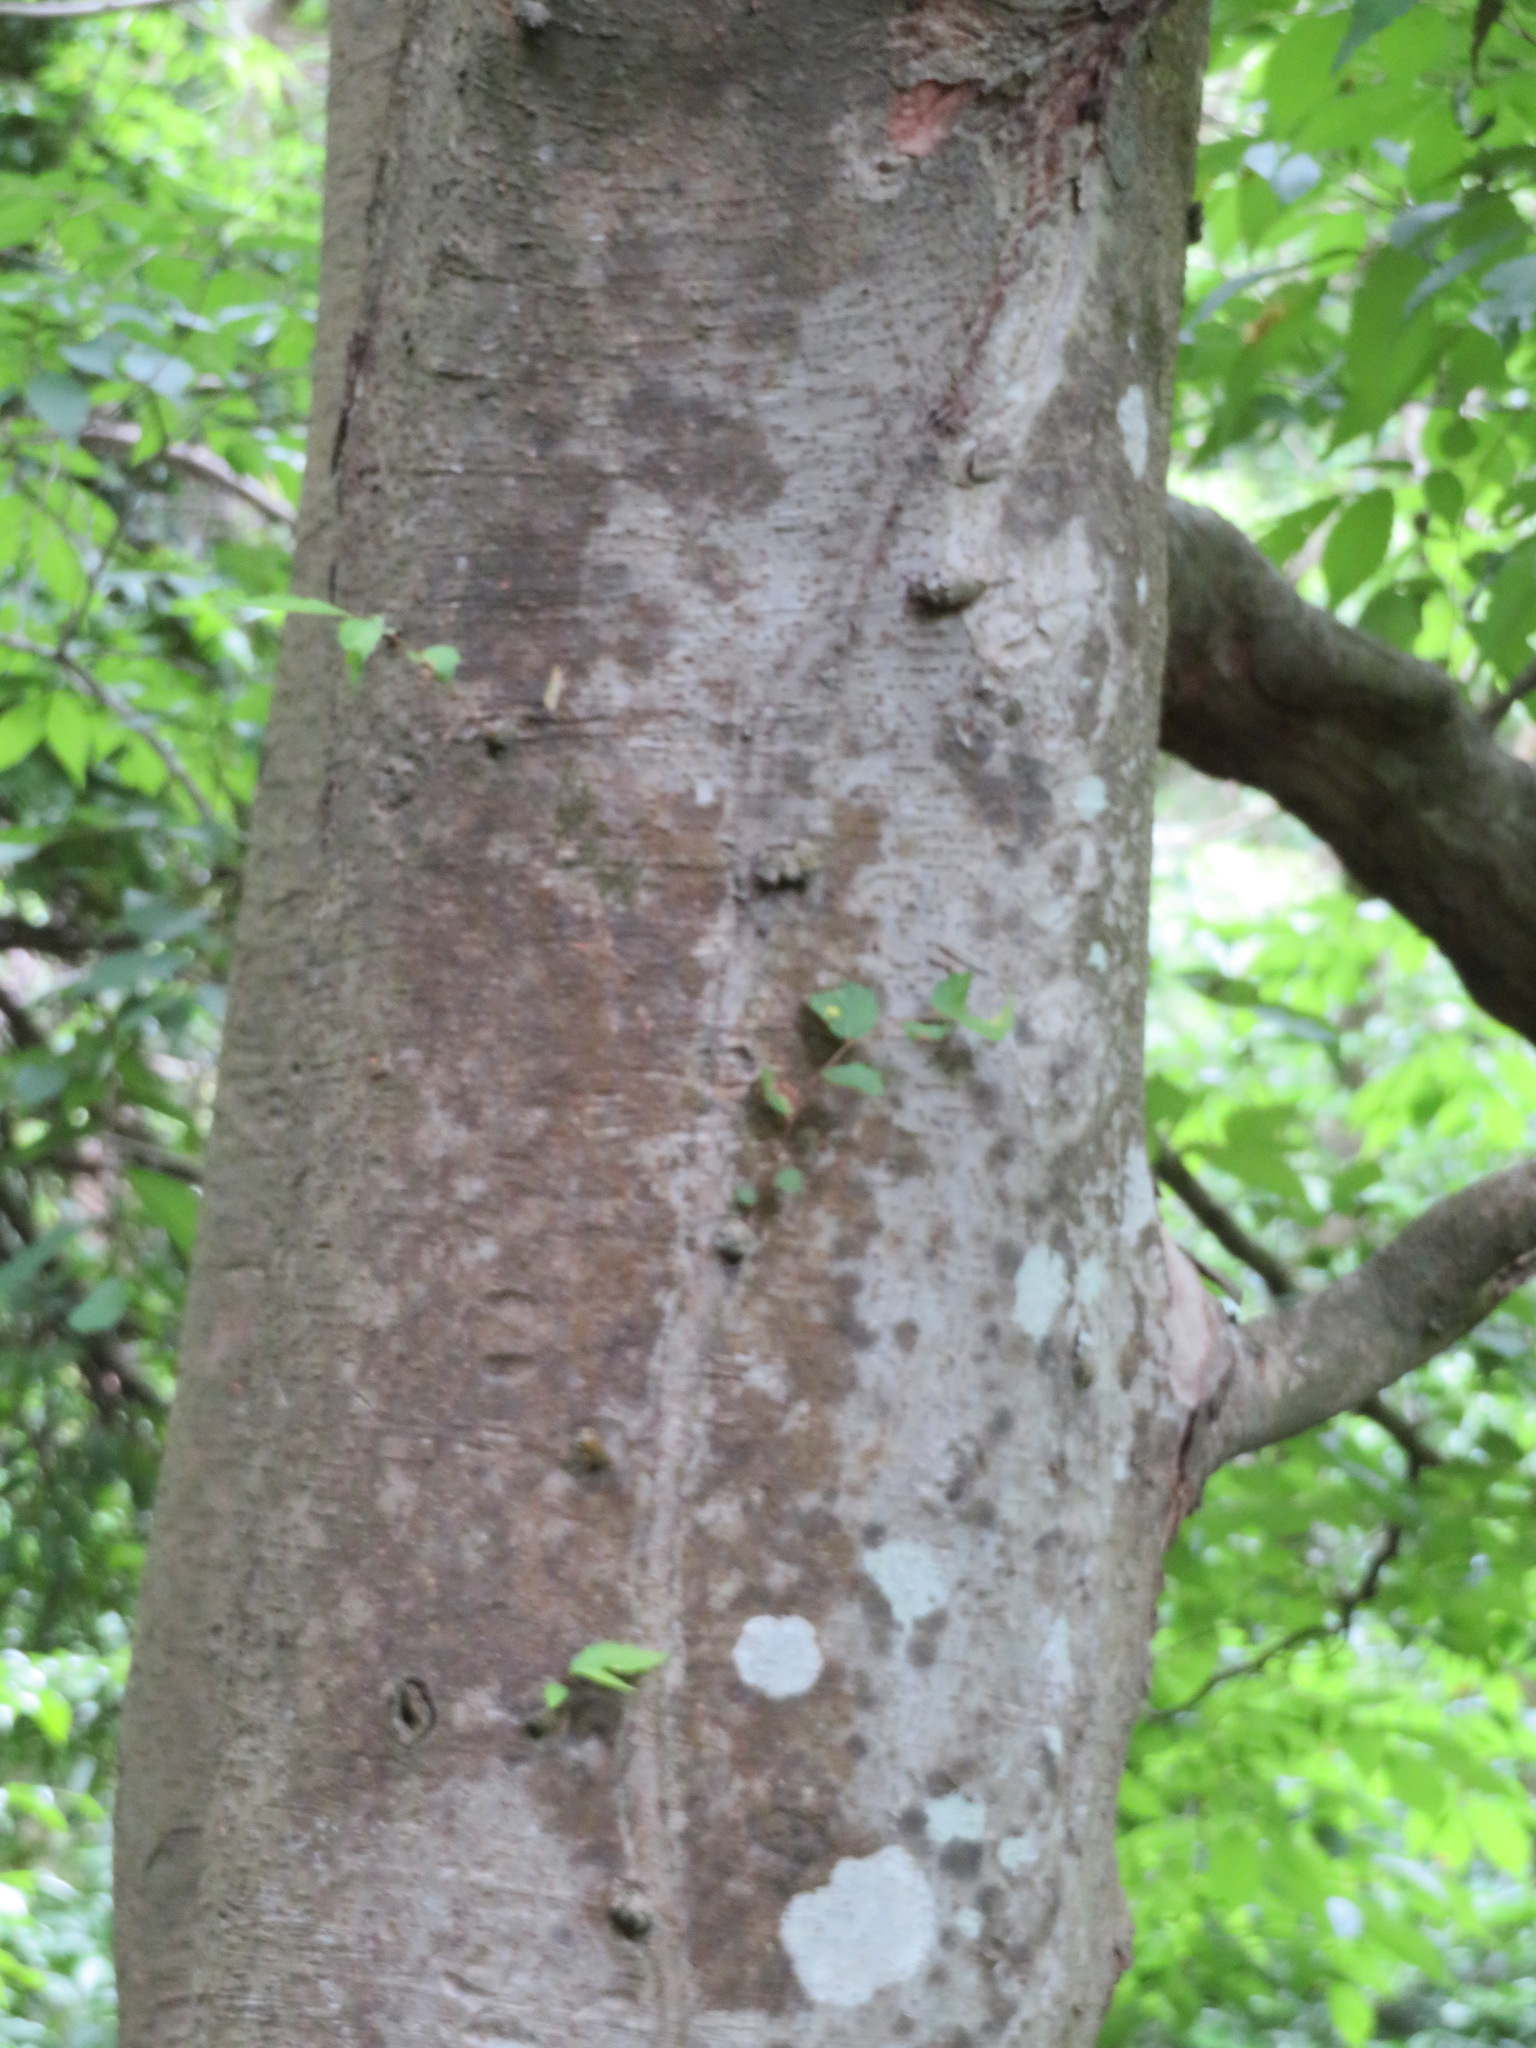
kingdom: Plantae
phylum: Tracheophyta
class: Magnoliopsida
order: Rosales
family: Ulmaceae
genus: Zelkova
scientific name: Zelkova serrata
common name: Japanese zelkova
